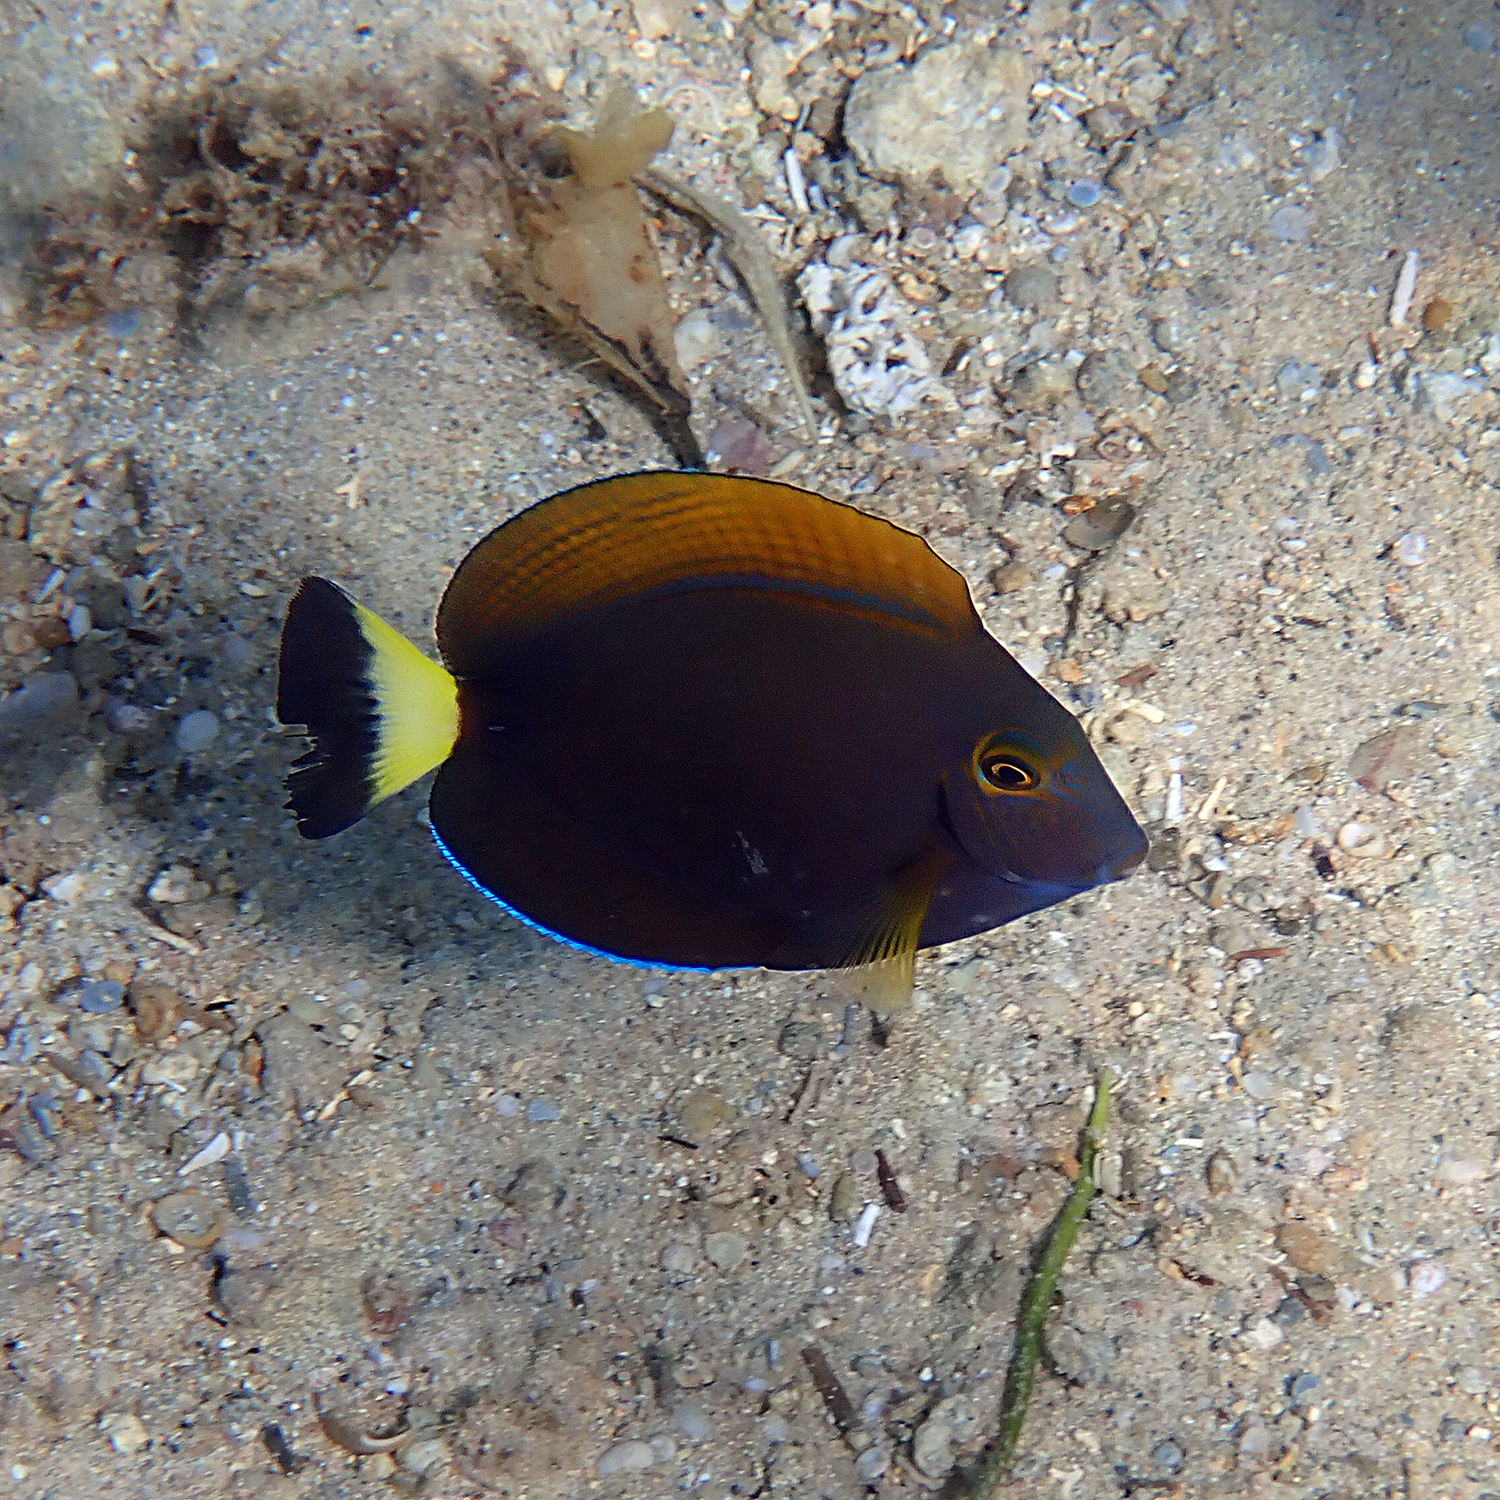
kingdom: Animalia
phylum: Chordata
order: Perciformes
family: Acanthuridae
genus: Acanthurus
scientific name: Acanthurus dussumieri
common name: Dussumier's surgeonfish
